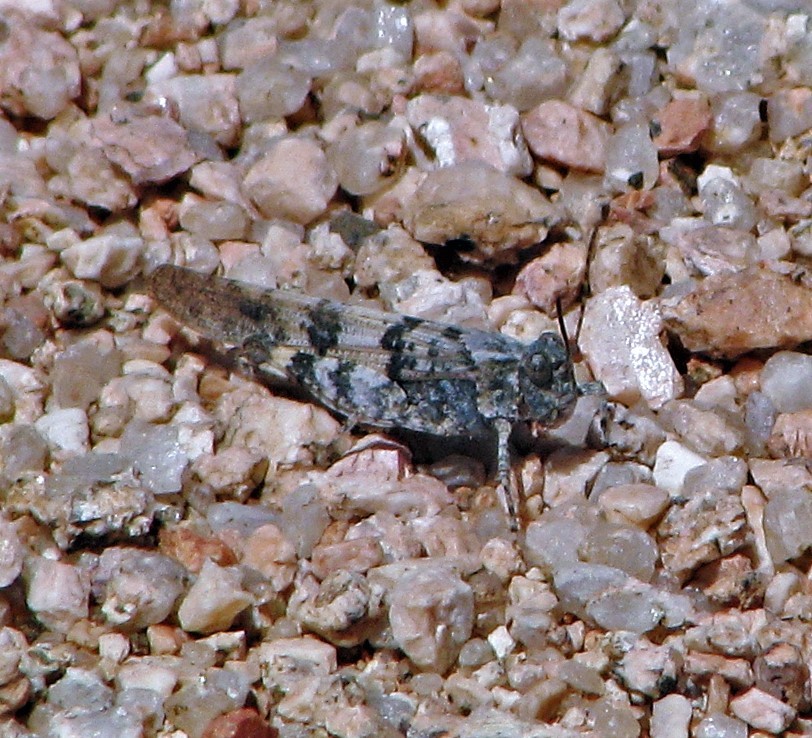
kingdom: Animalia
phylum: Arthropoda
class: Insecta
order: Orthoptera
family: Acrididae
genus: Trimerotropis
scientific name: Trimerotropis pallidipennis
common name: Pallid-winged grasshopper
